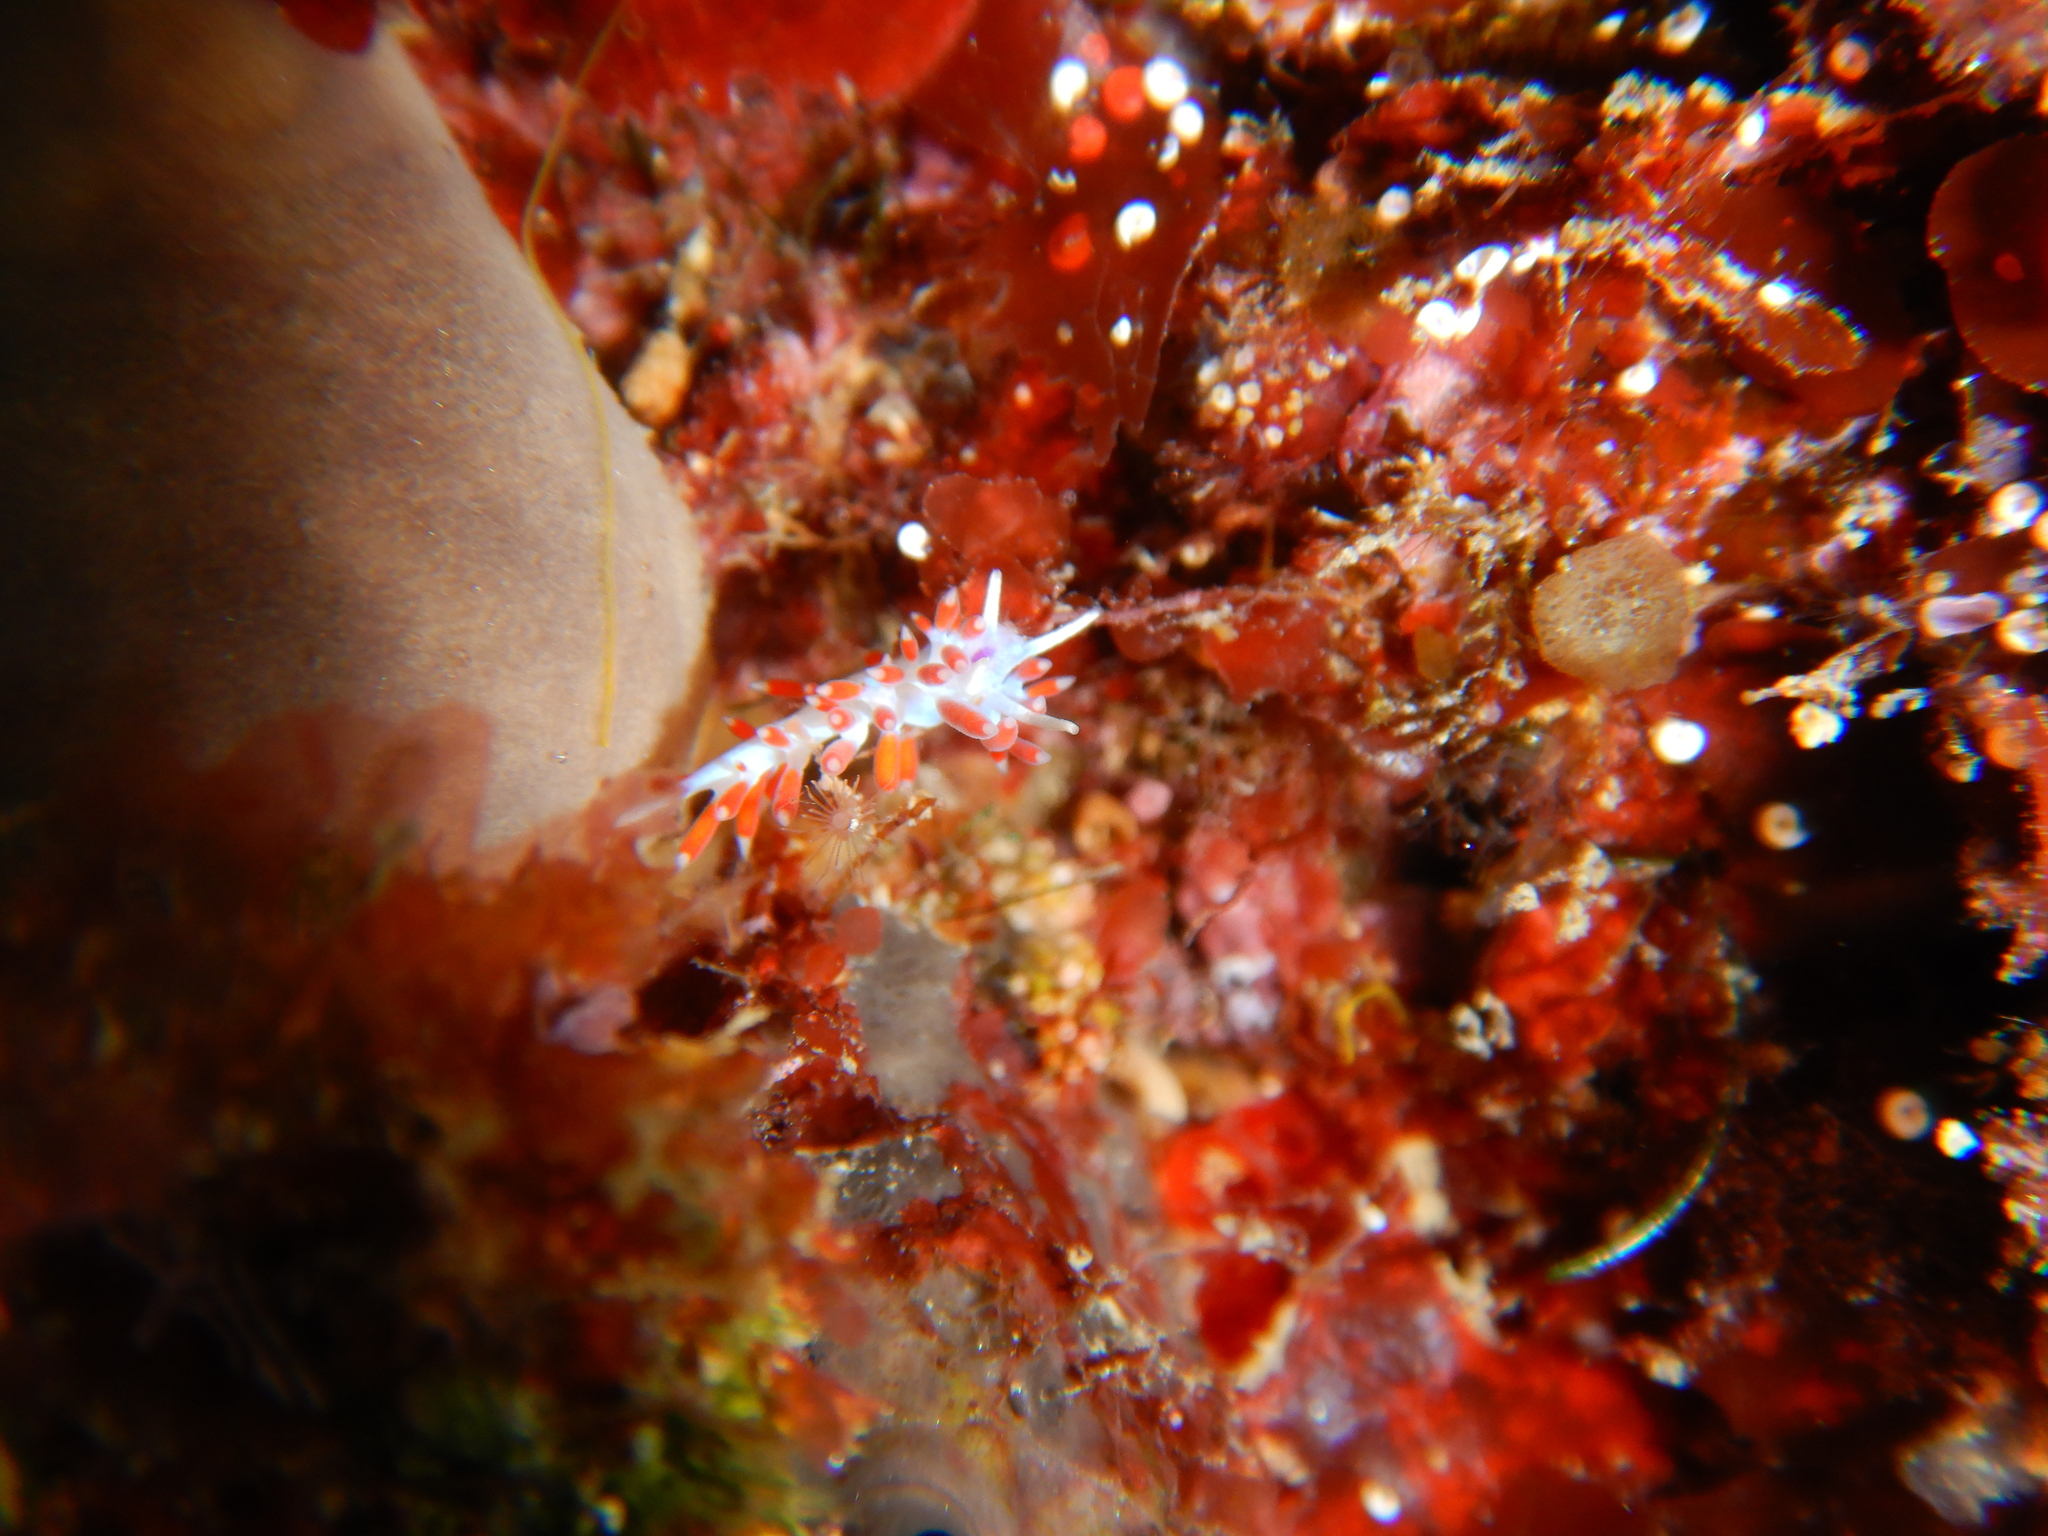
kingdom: Animalia
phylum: Mollusca
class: Gastropoda
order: Nudibranchia
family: Flabellinidae
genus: Calmella
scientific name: Calmella cavolini
